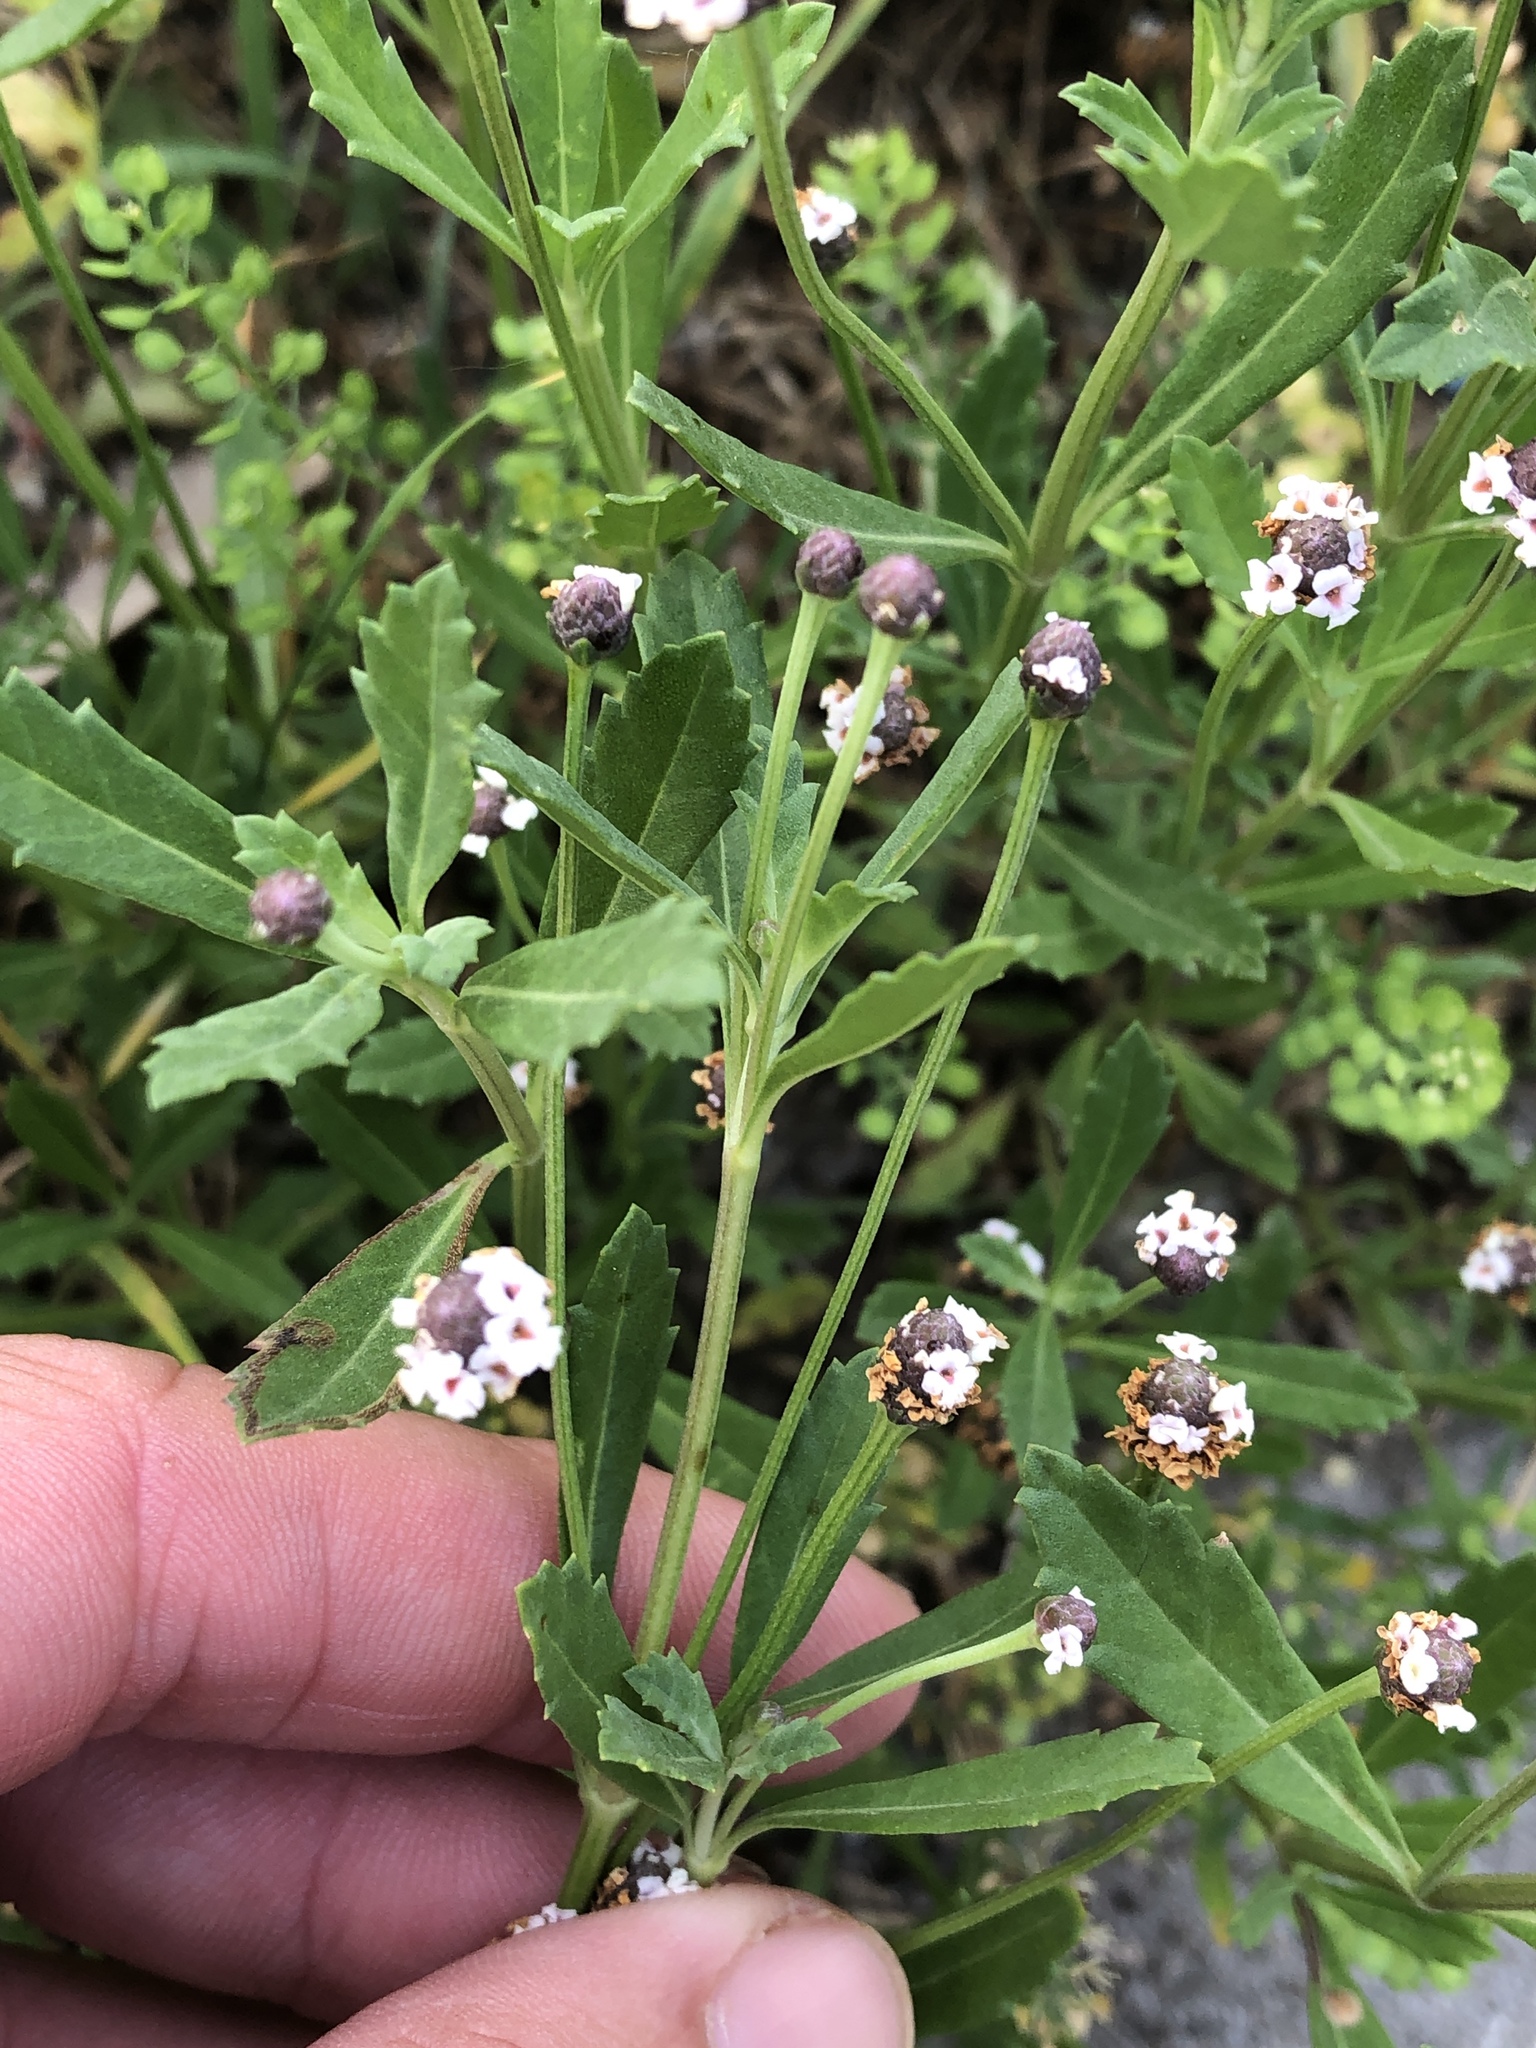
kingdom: Plantae
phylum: Tracheophyta
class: Magnoliopsida
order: Lamiales
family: Verbenaceae
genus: Phyla
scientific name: Phyla nodiflora
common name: Frogfruit
